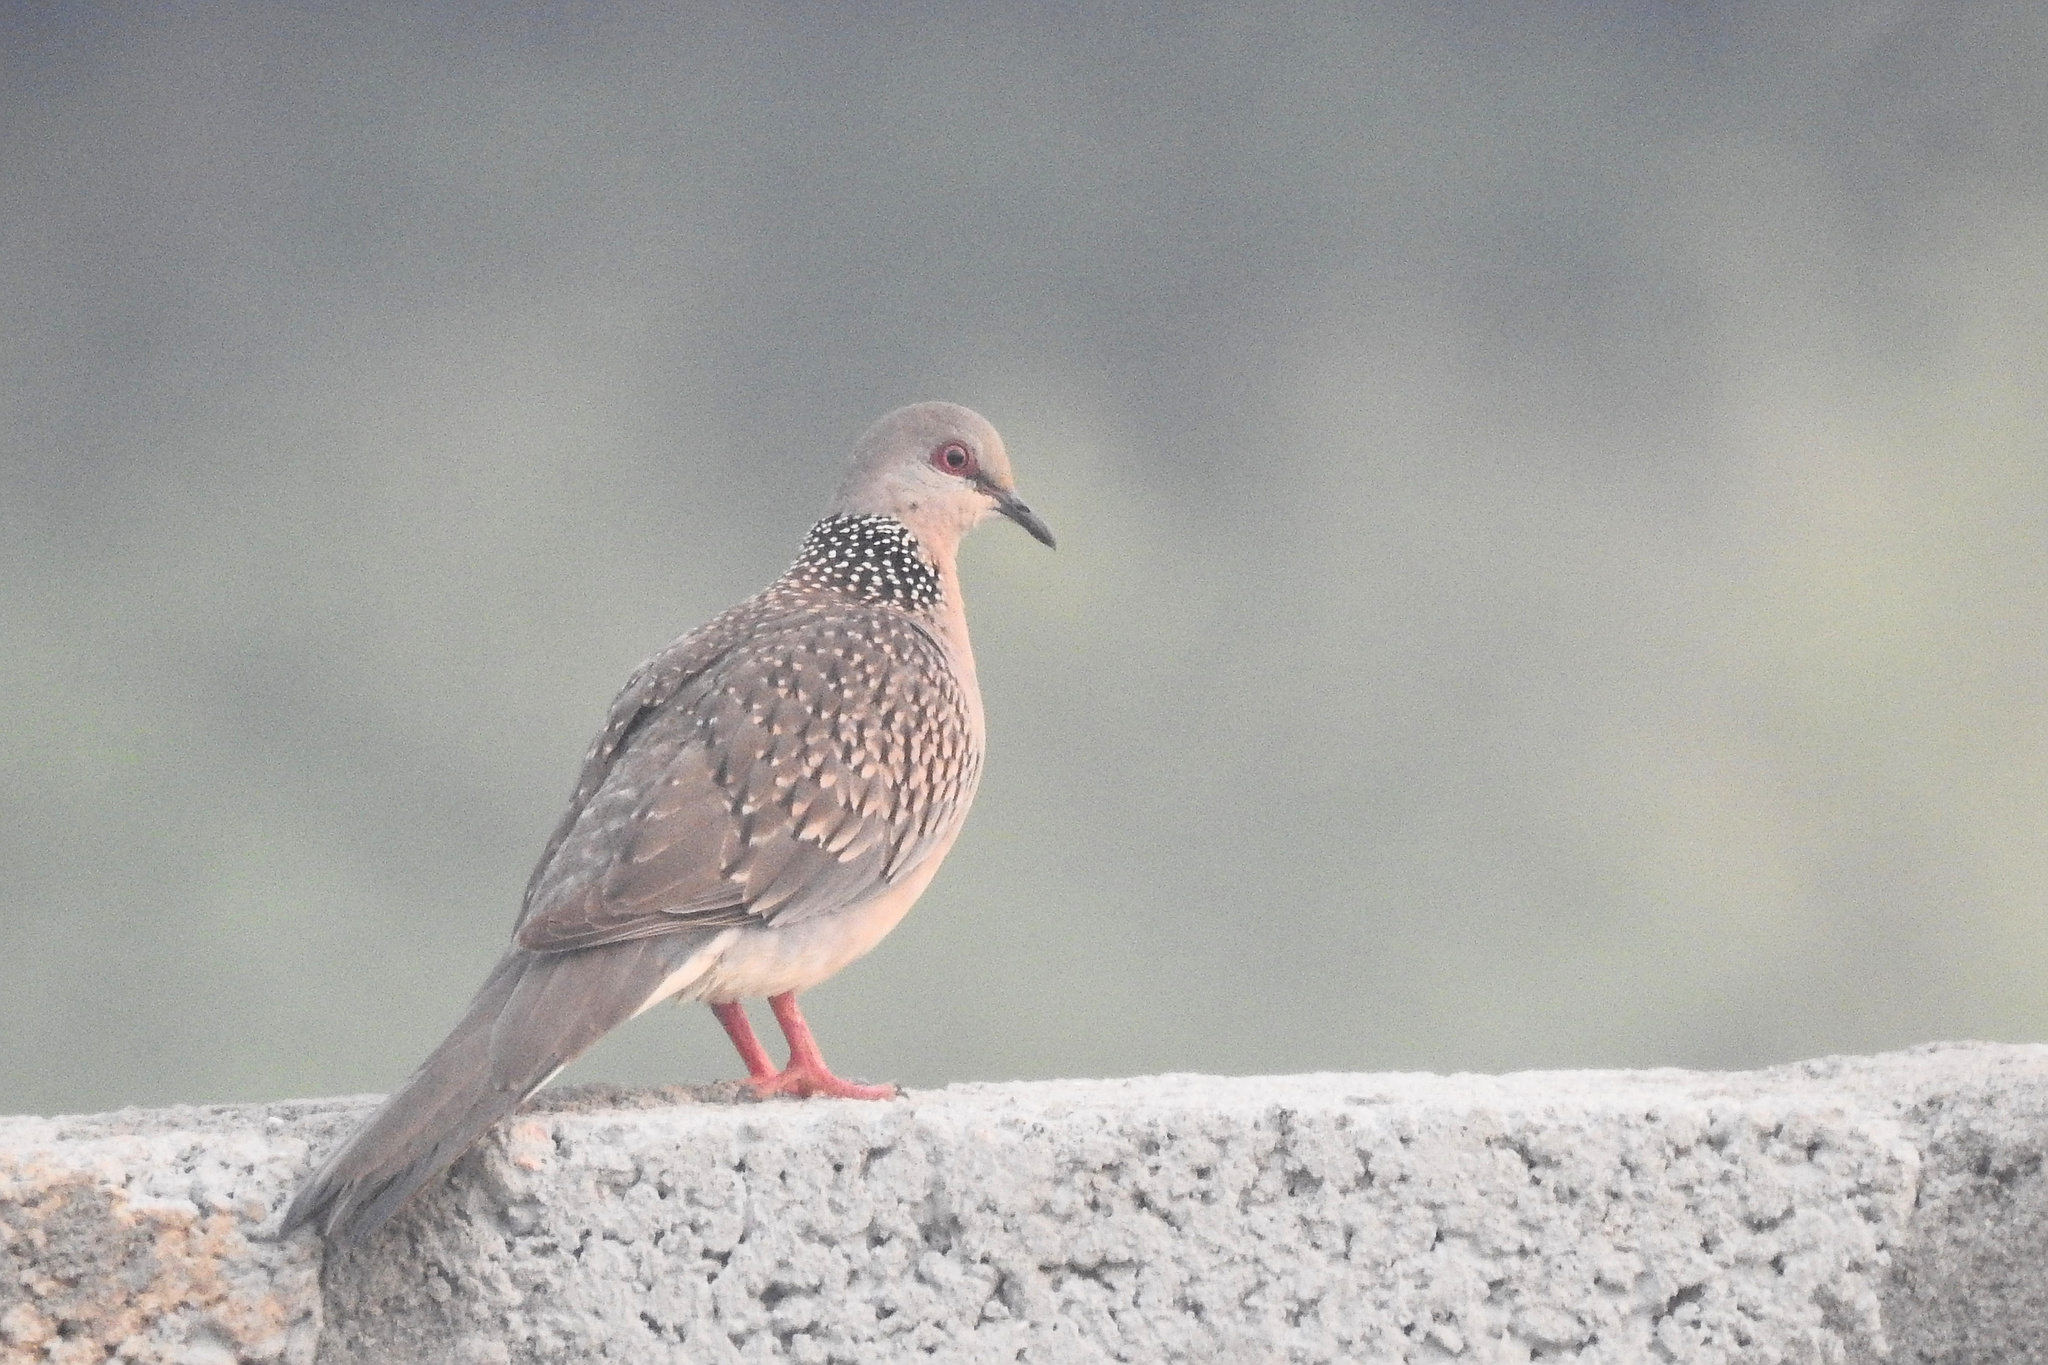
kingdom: Animalia
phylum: Chordata
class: Aves
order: Columbiformes
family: Columbidae
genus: Spilopelia
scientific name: Spilopelia chinensis
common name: Spotted dove
